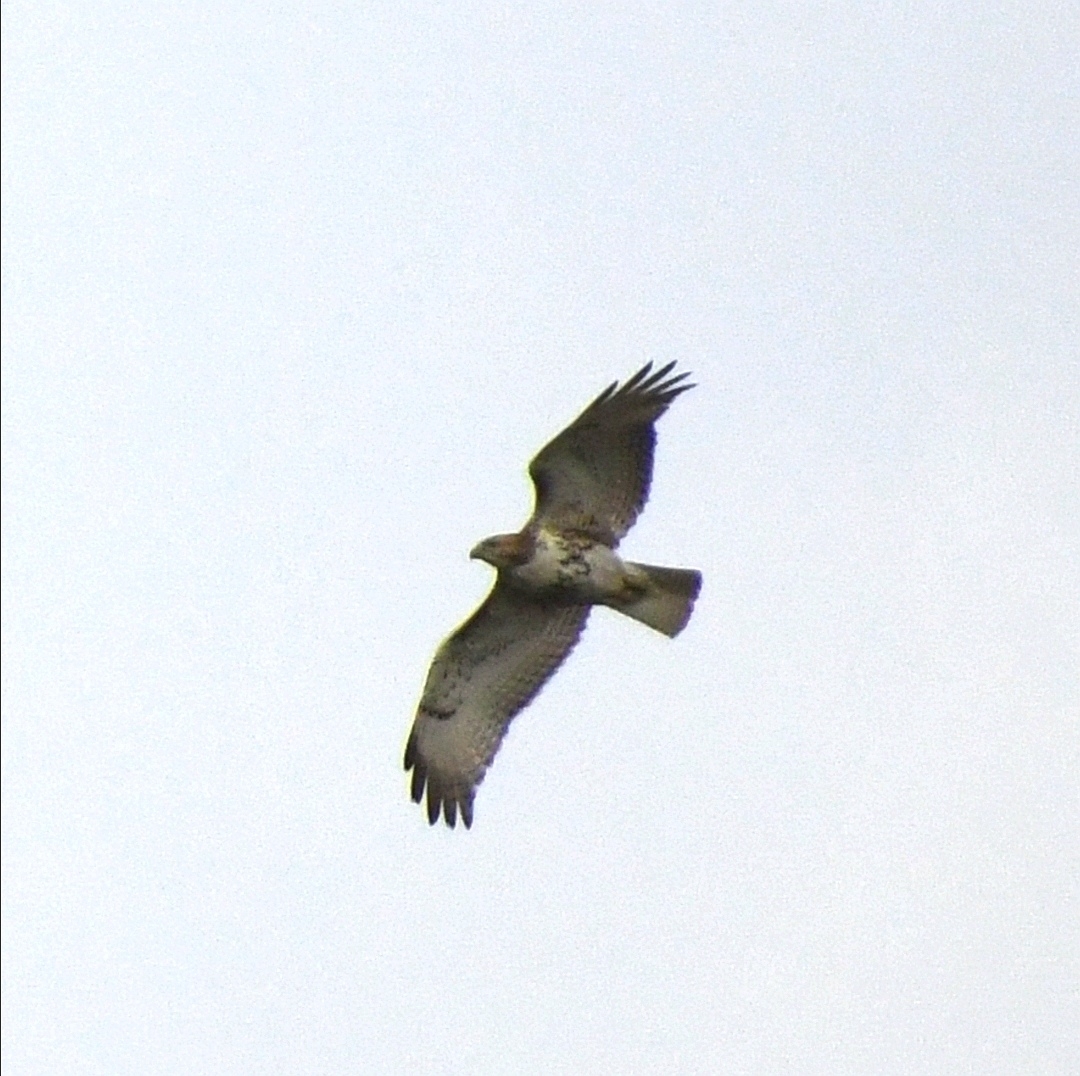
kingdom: Animalia
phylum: Chordata
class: Aves
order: Accipitriformes
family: Accipitridae
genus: Buteo
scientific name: Buteo jamaicensis
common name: Red-tailed hawk
